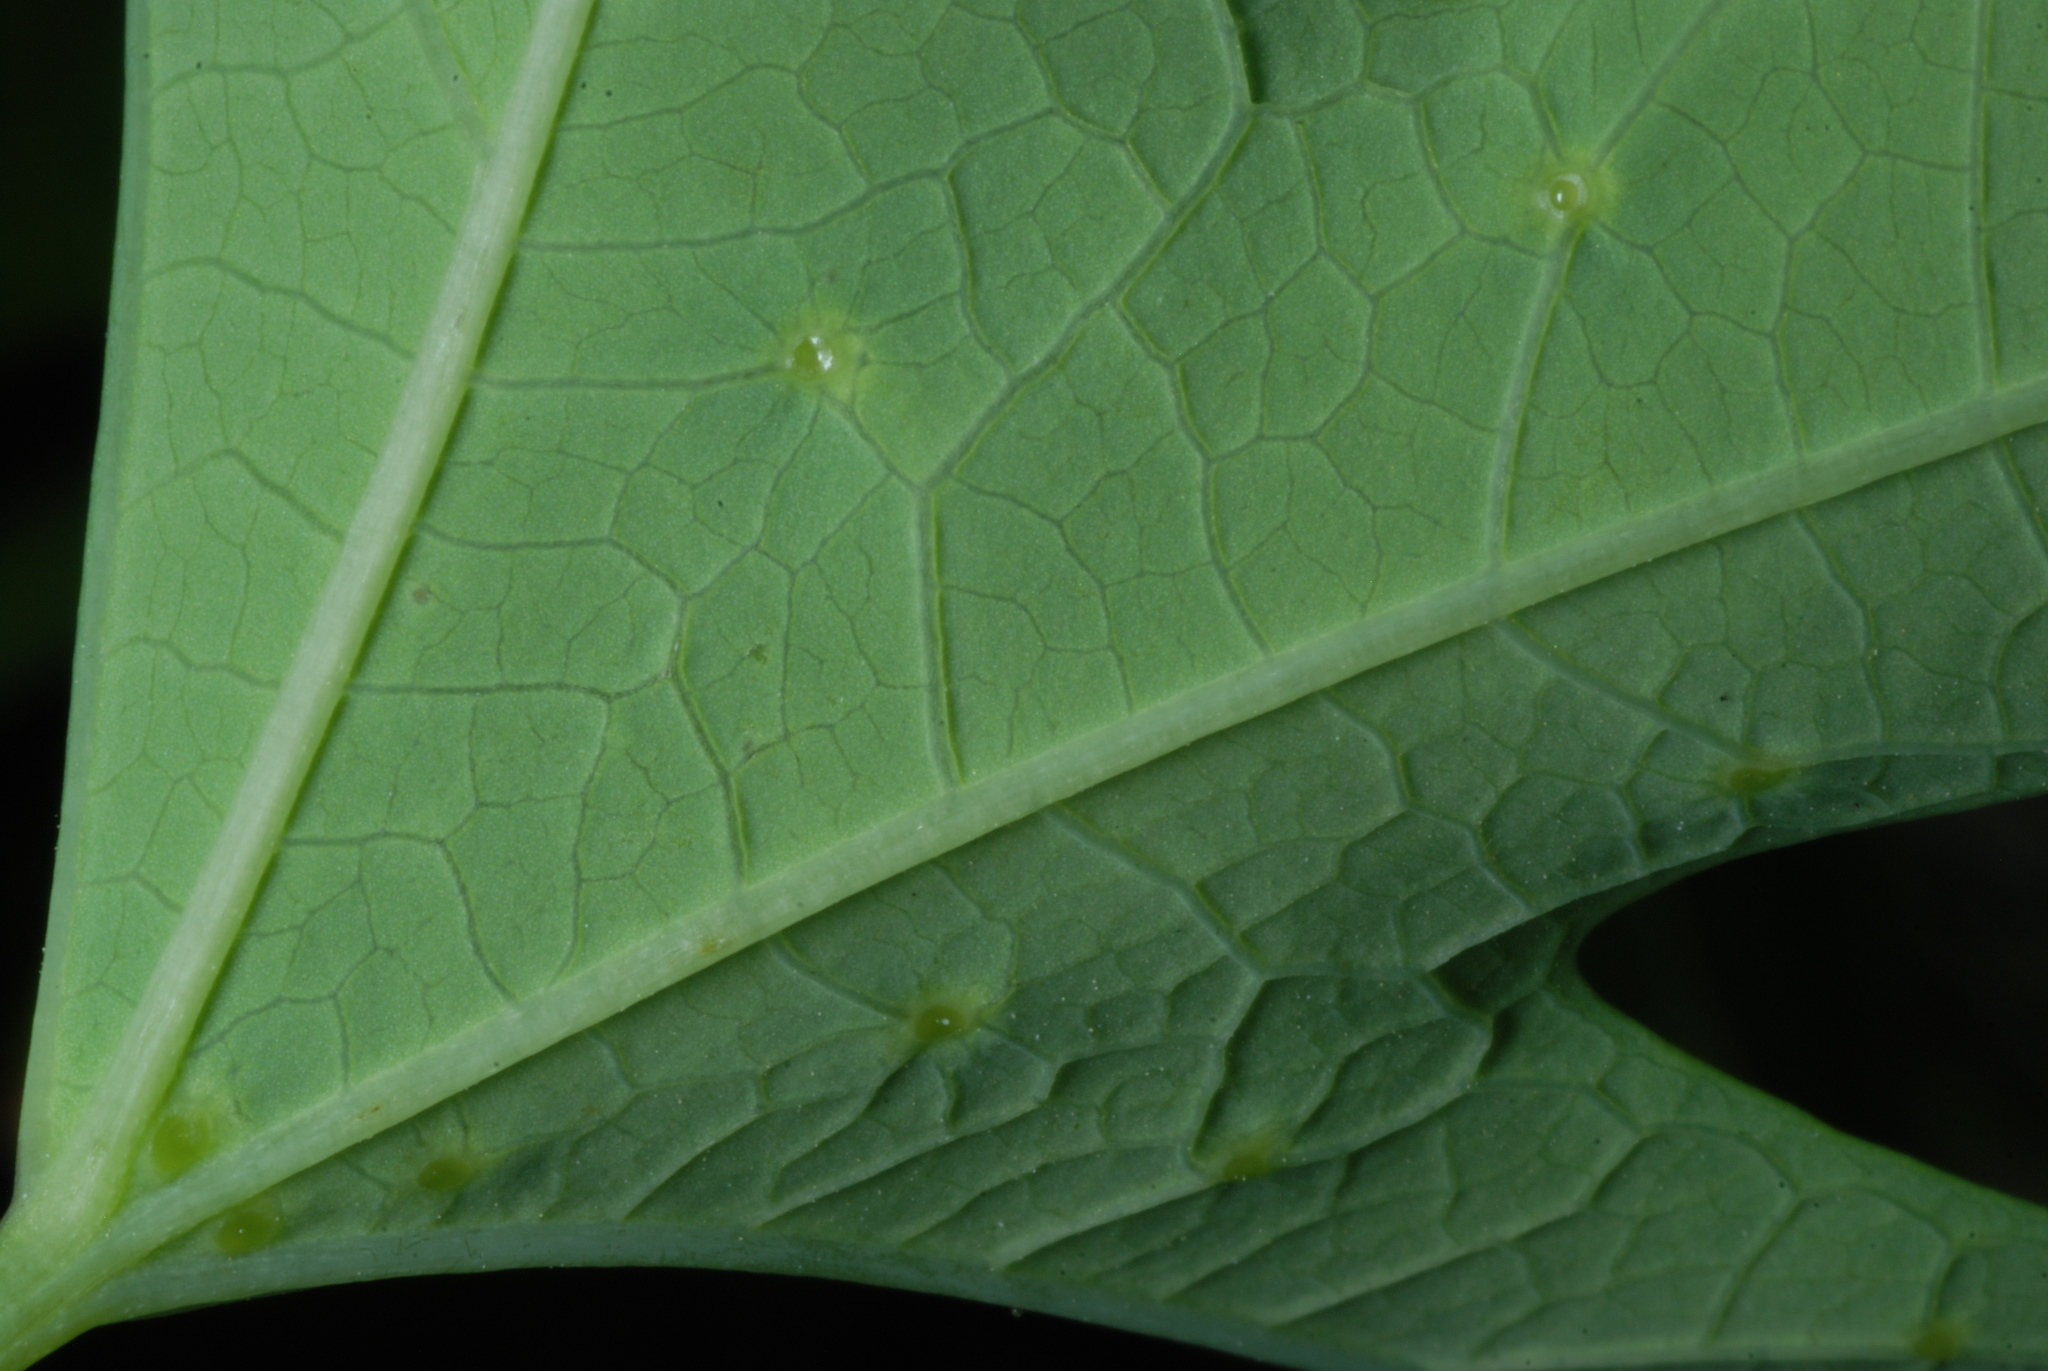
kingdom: Plantae
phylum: Tracheophyta
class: Magnoliopsida
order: Malpighiales
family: Passifloraceae
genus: Passiflora
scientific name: Passiflora affinis
